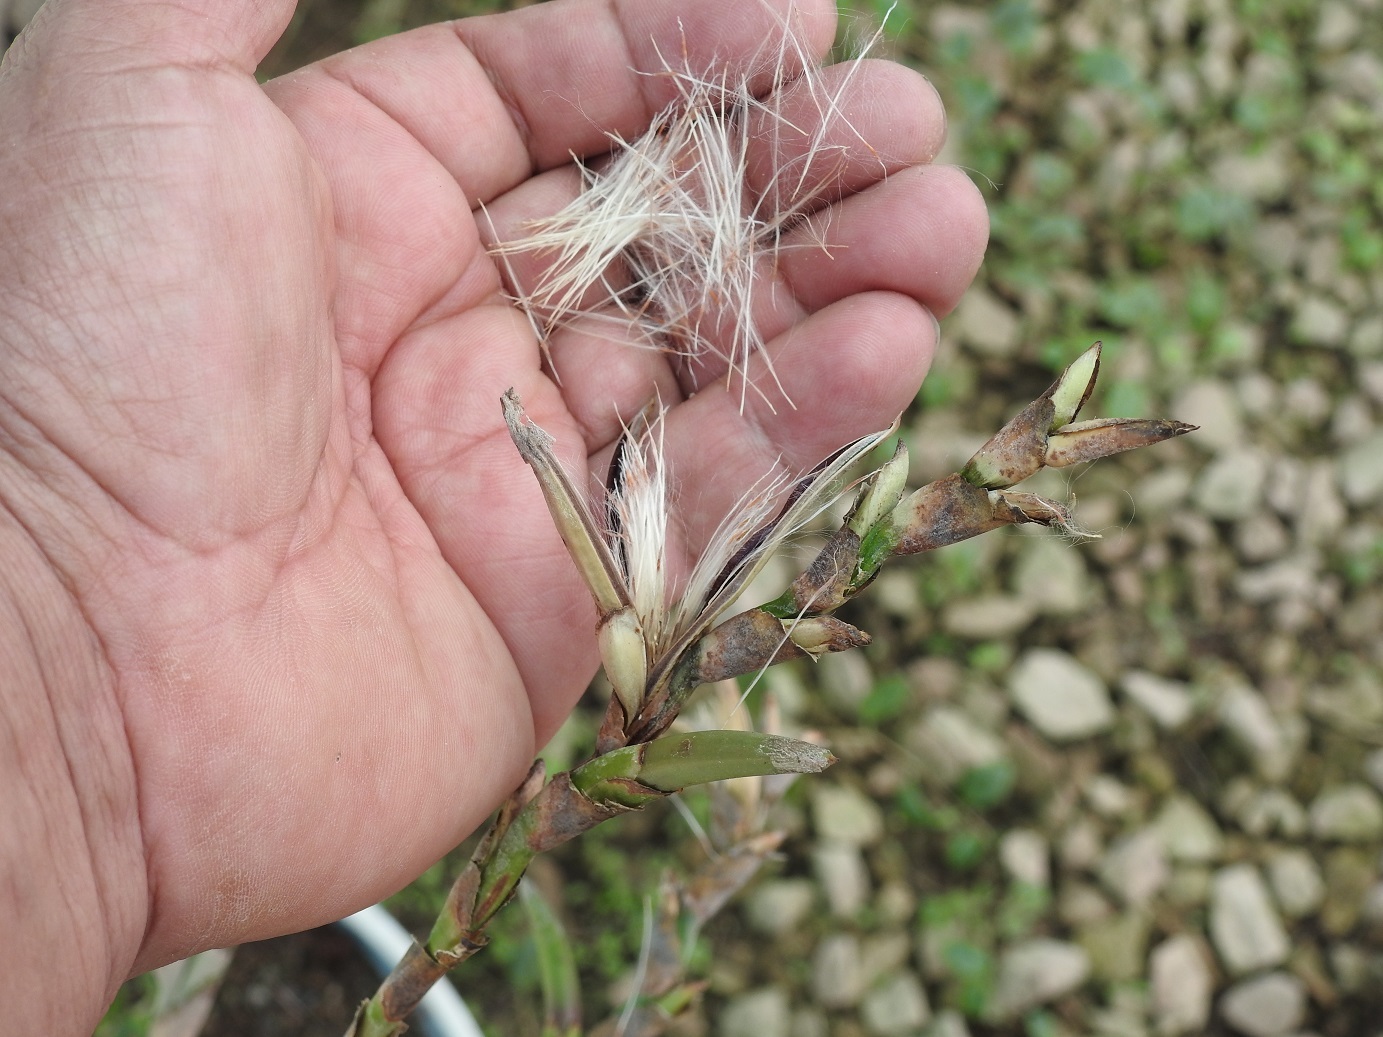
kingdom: Plantae
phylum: Tracheophyta
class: Liliopsida
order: Poales
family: Bromeliaceae
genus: Tillandsia
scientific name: Tillandsia makoyana
